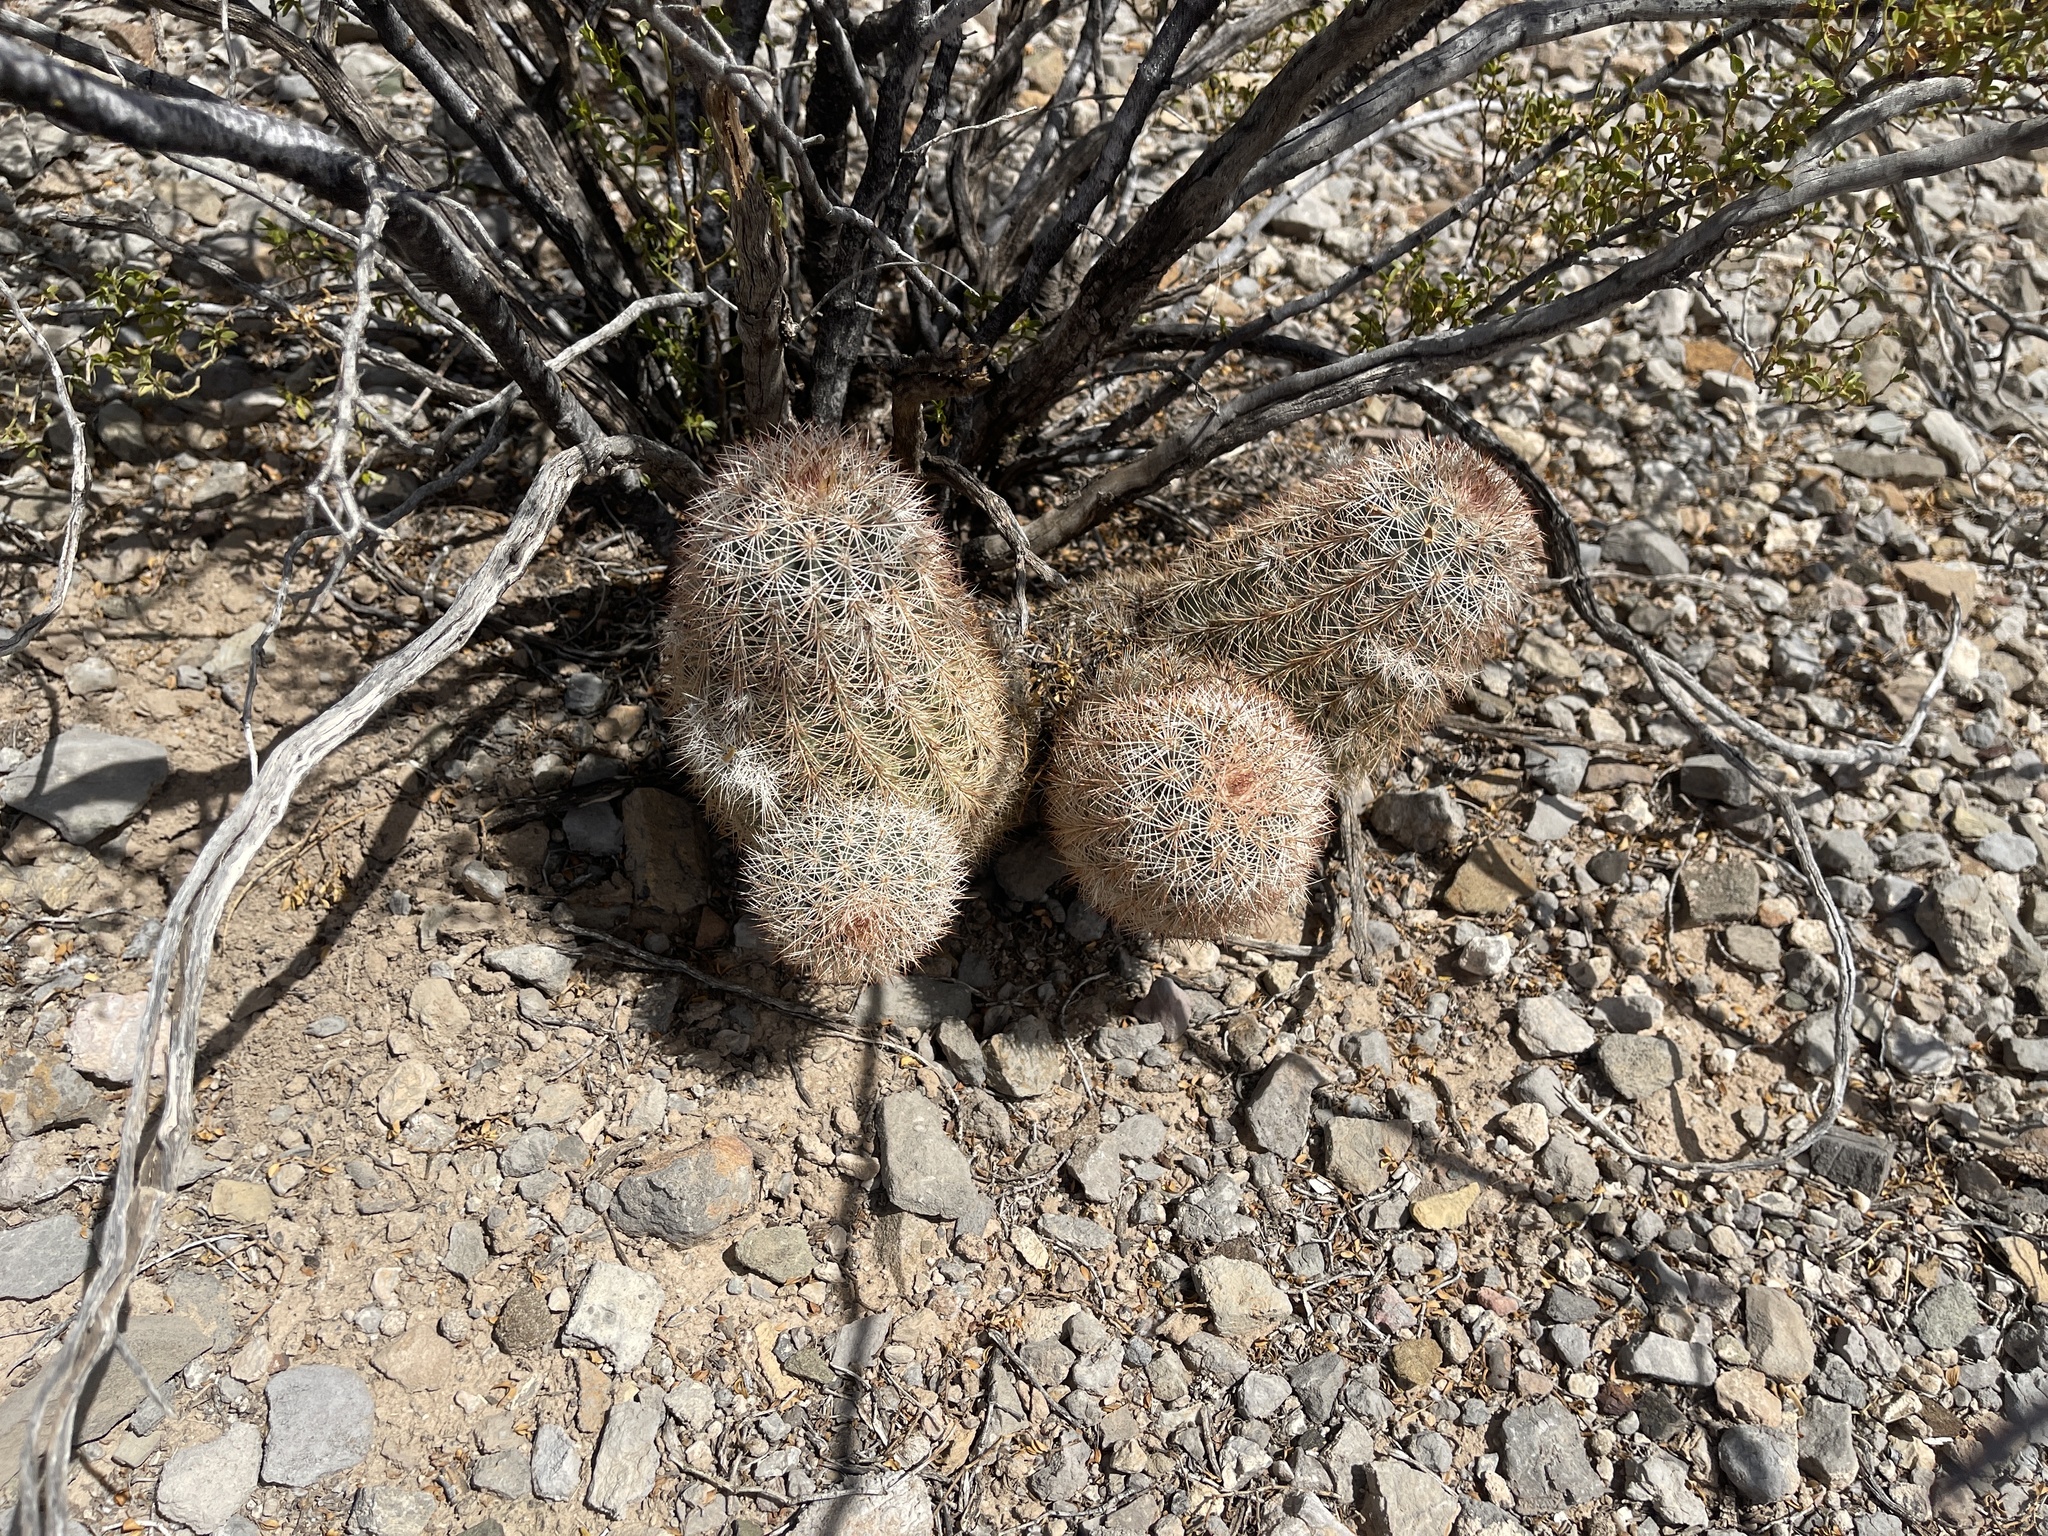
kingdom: Plantae
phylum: Tracheophyta
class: Magnoliopsida
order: Caryophyllales
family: Cactaceae
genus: Echinocereus
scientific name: Echinocereus dasyacanthus
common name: Spiny hedgehog cactus
